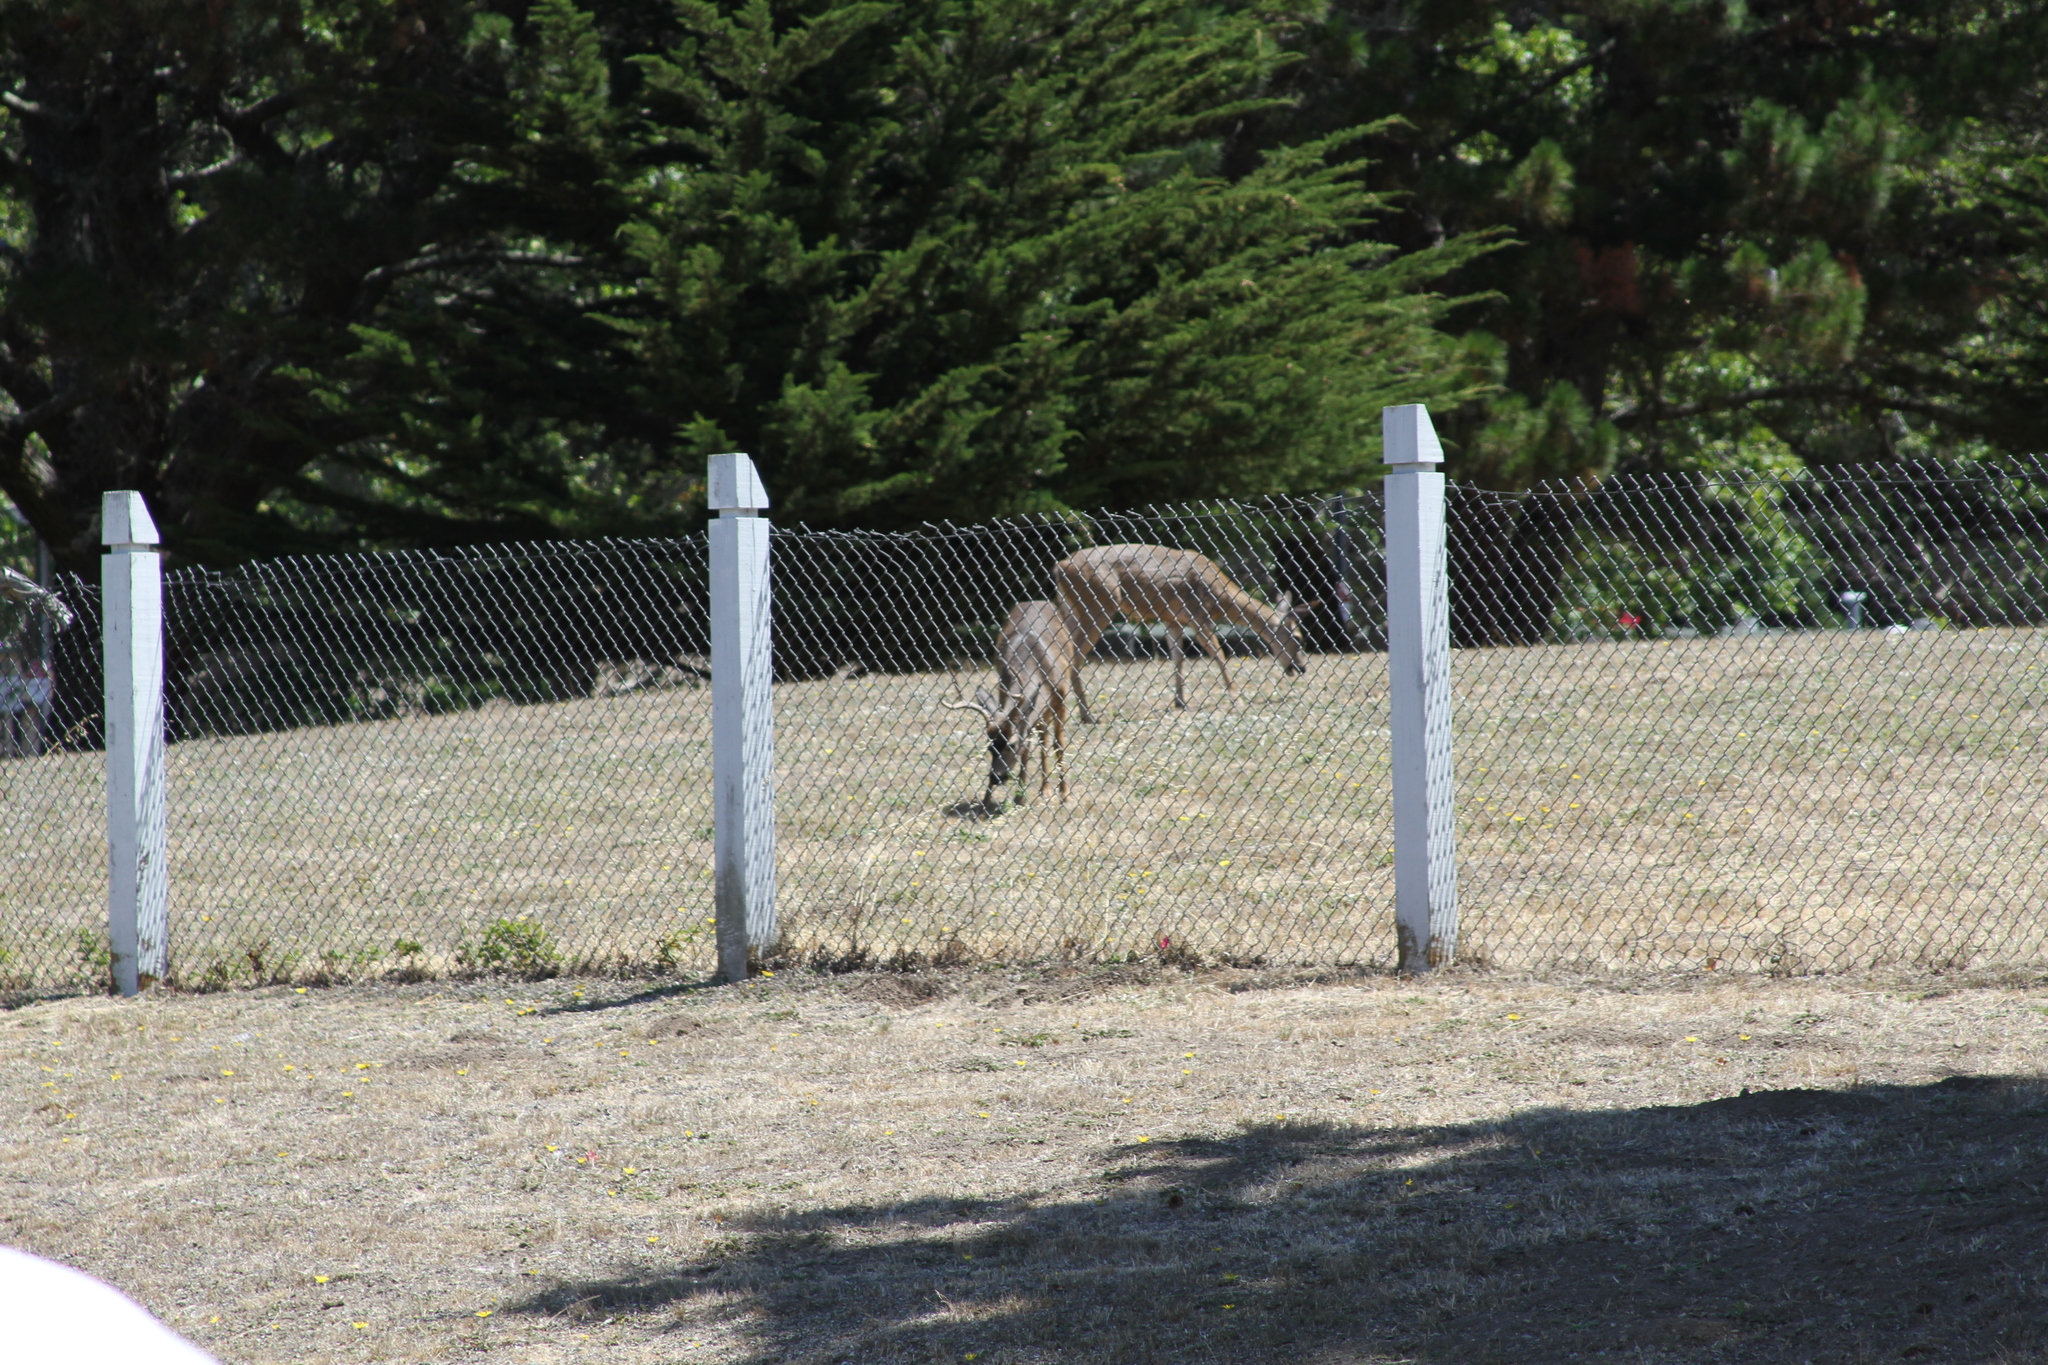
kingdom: Animalia
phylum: Chordata
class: Mammalia
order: Artiodactyla
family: Cervidae
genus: Odocoileus
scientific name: Odocoileus hemionus
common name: Mule deer
